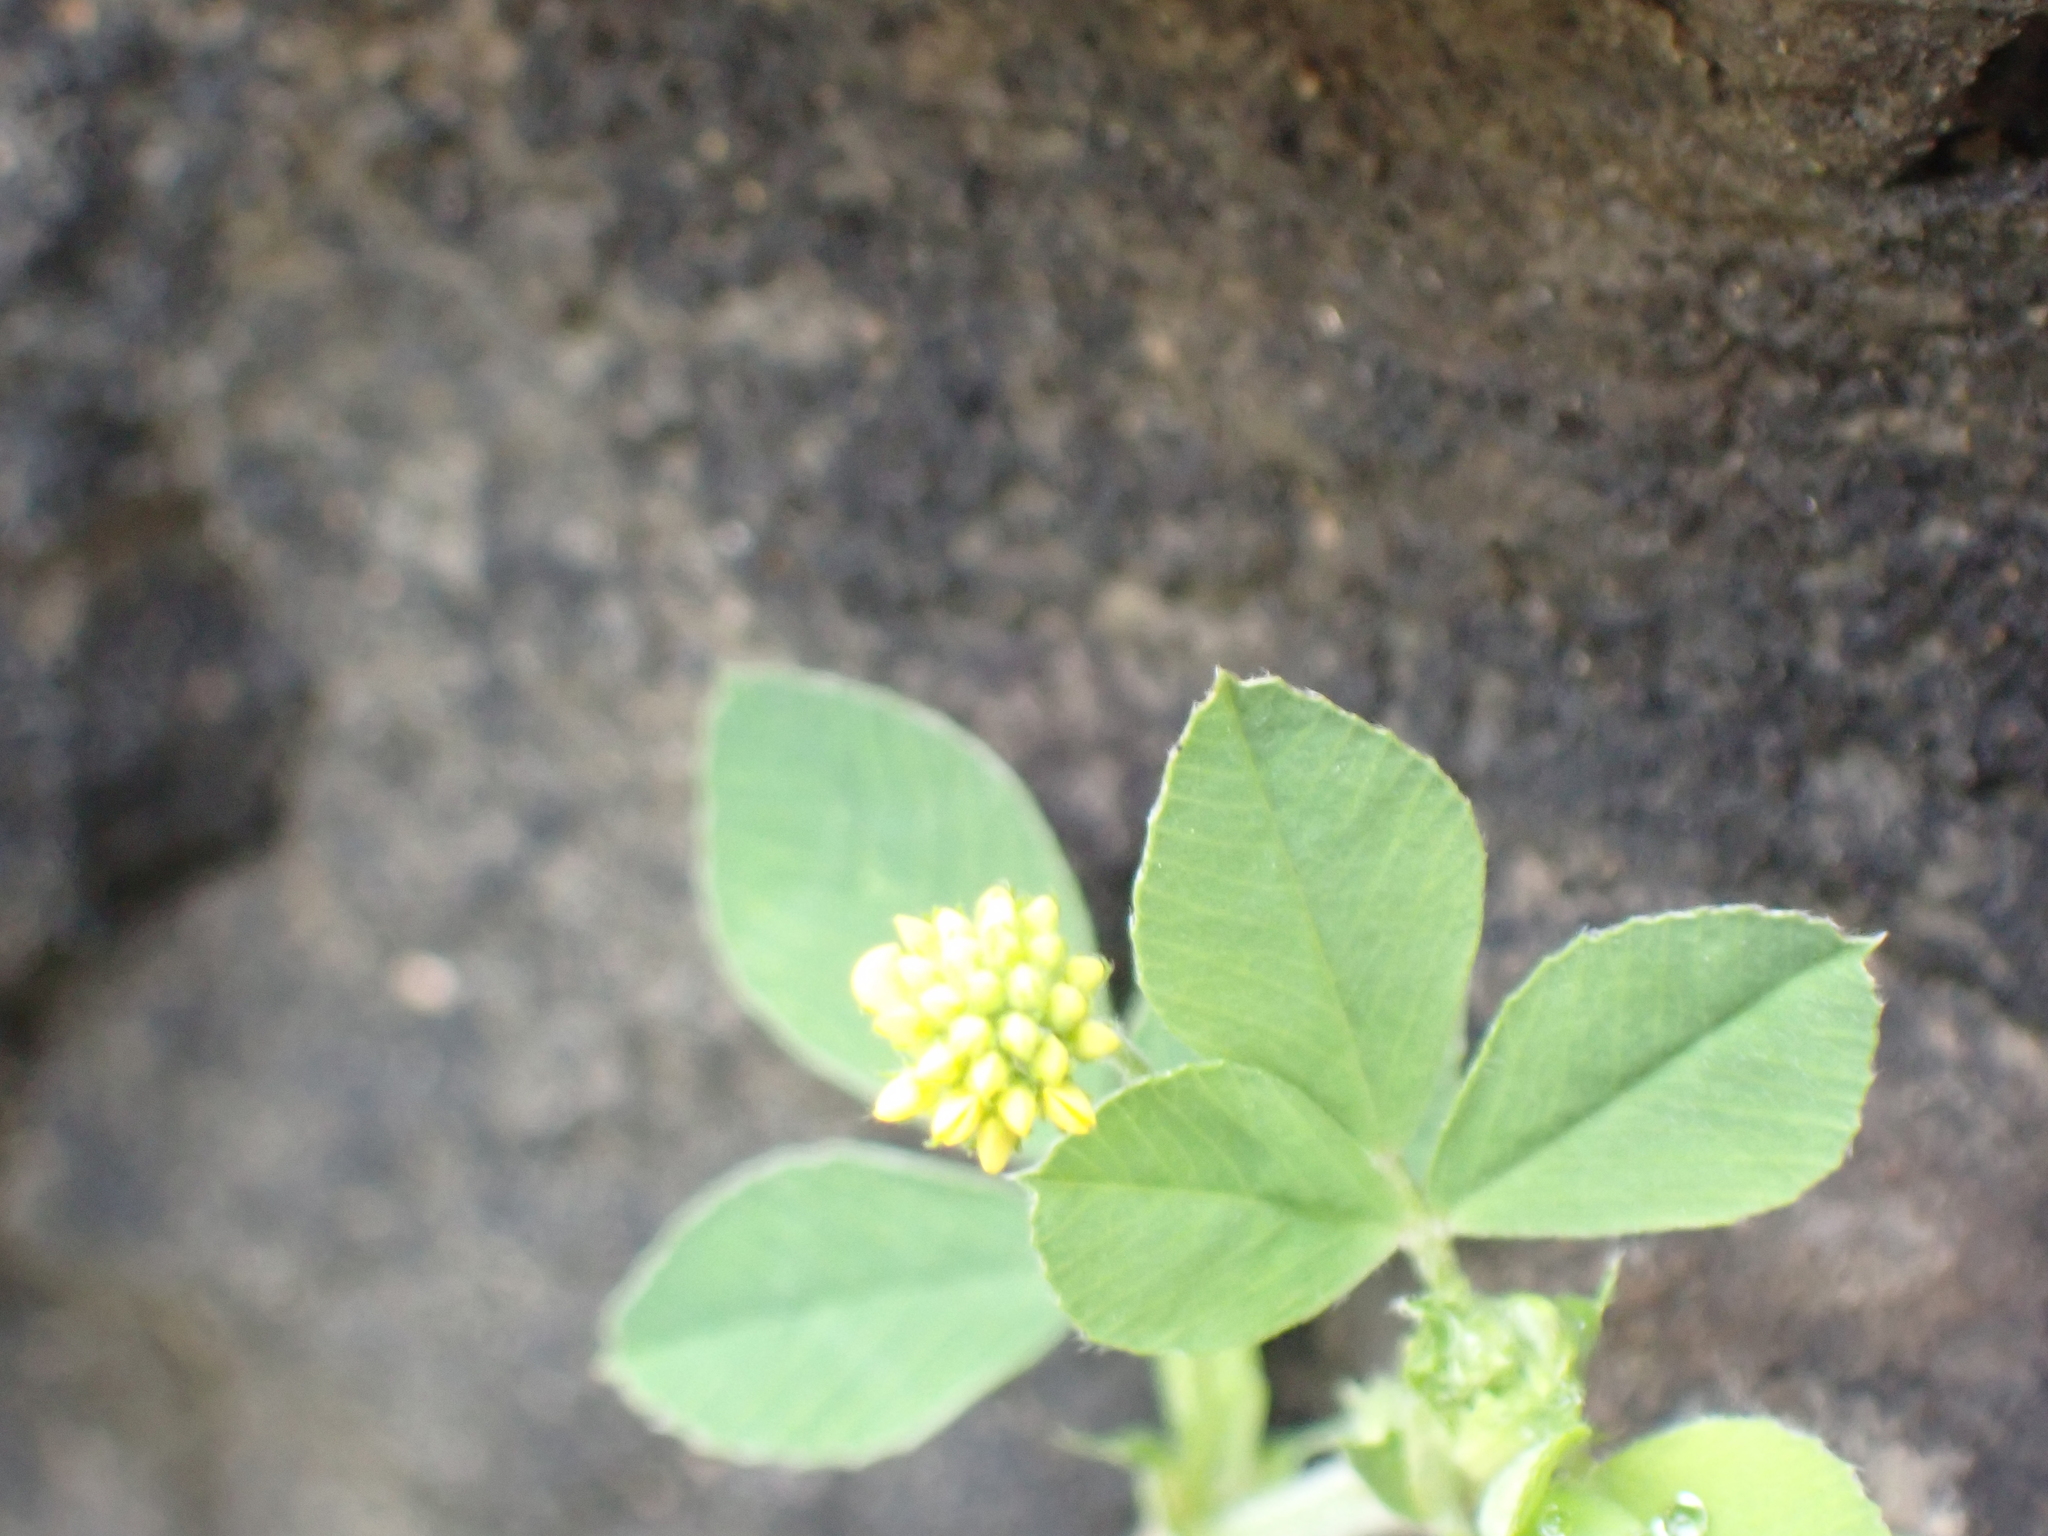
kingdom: Plantae
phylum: Tracheophyta
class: Magnoliopsida
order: Fabales
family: Fabaceae
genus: Medicago
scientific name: Medicago lupulina
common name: Black medick
